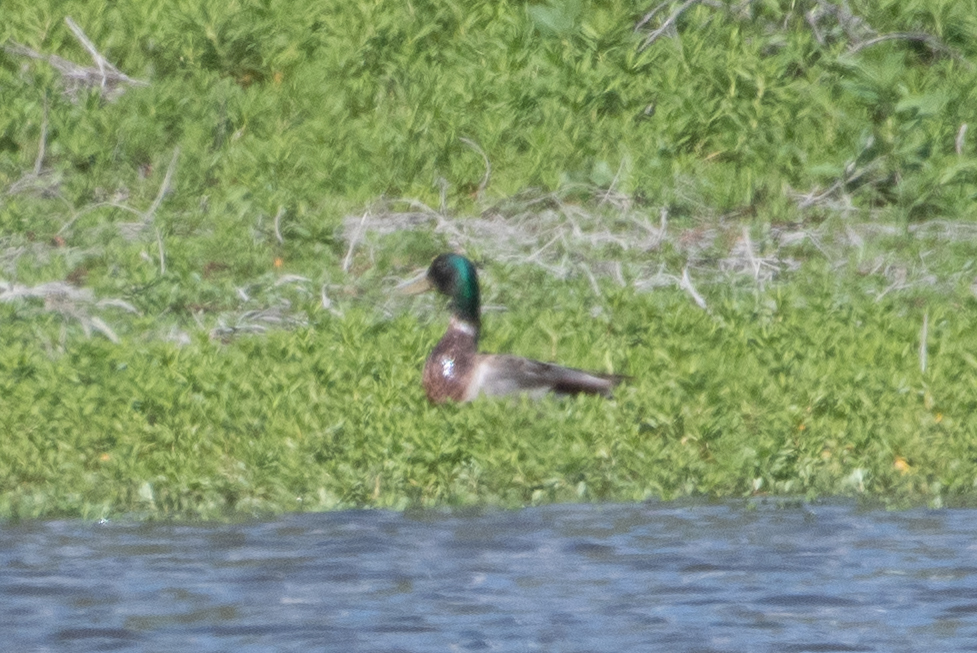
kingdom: Animalia
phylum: Chordata
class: Aves
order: Anseriformes
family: Anatidae
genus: Anas
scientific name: Anas platyrhynchos
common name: Mallard
